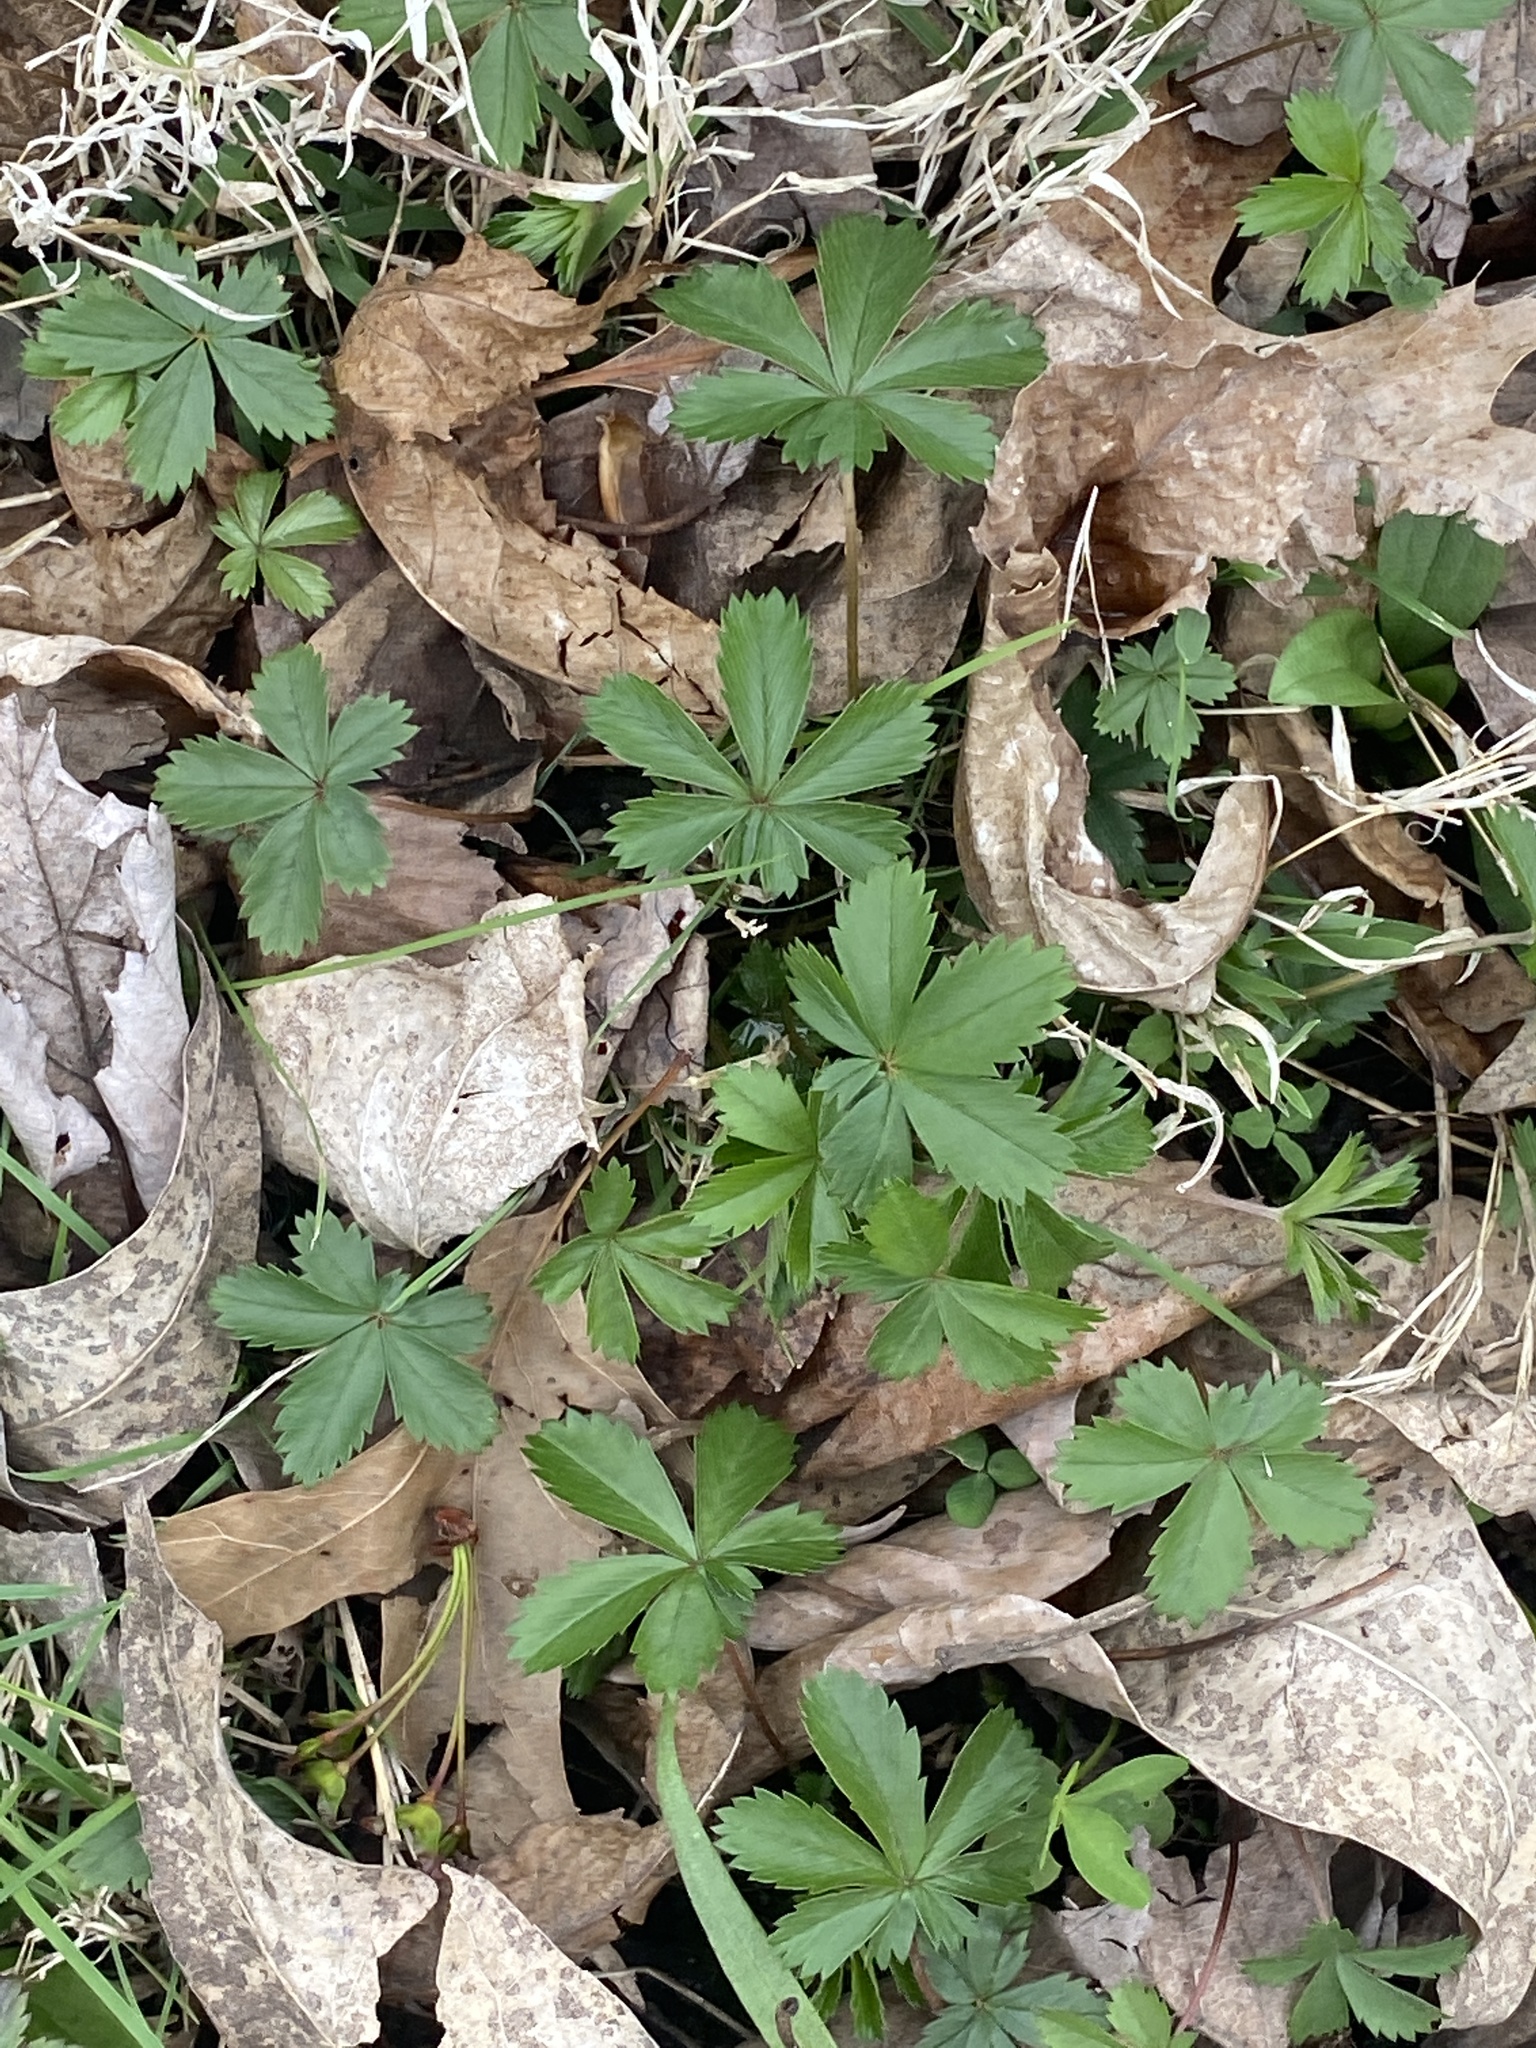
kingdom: Plantae
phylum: Tracheophyta
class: Magnoliopsida
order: Rosales
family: Rosaceae
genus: Potentilla
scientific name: Potentilla canadensis
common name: Canada cinquefoil
